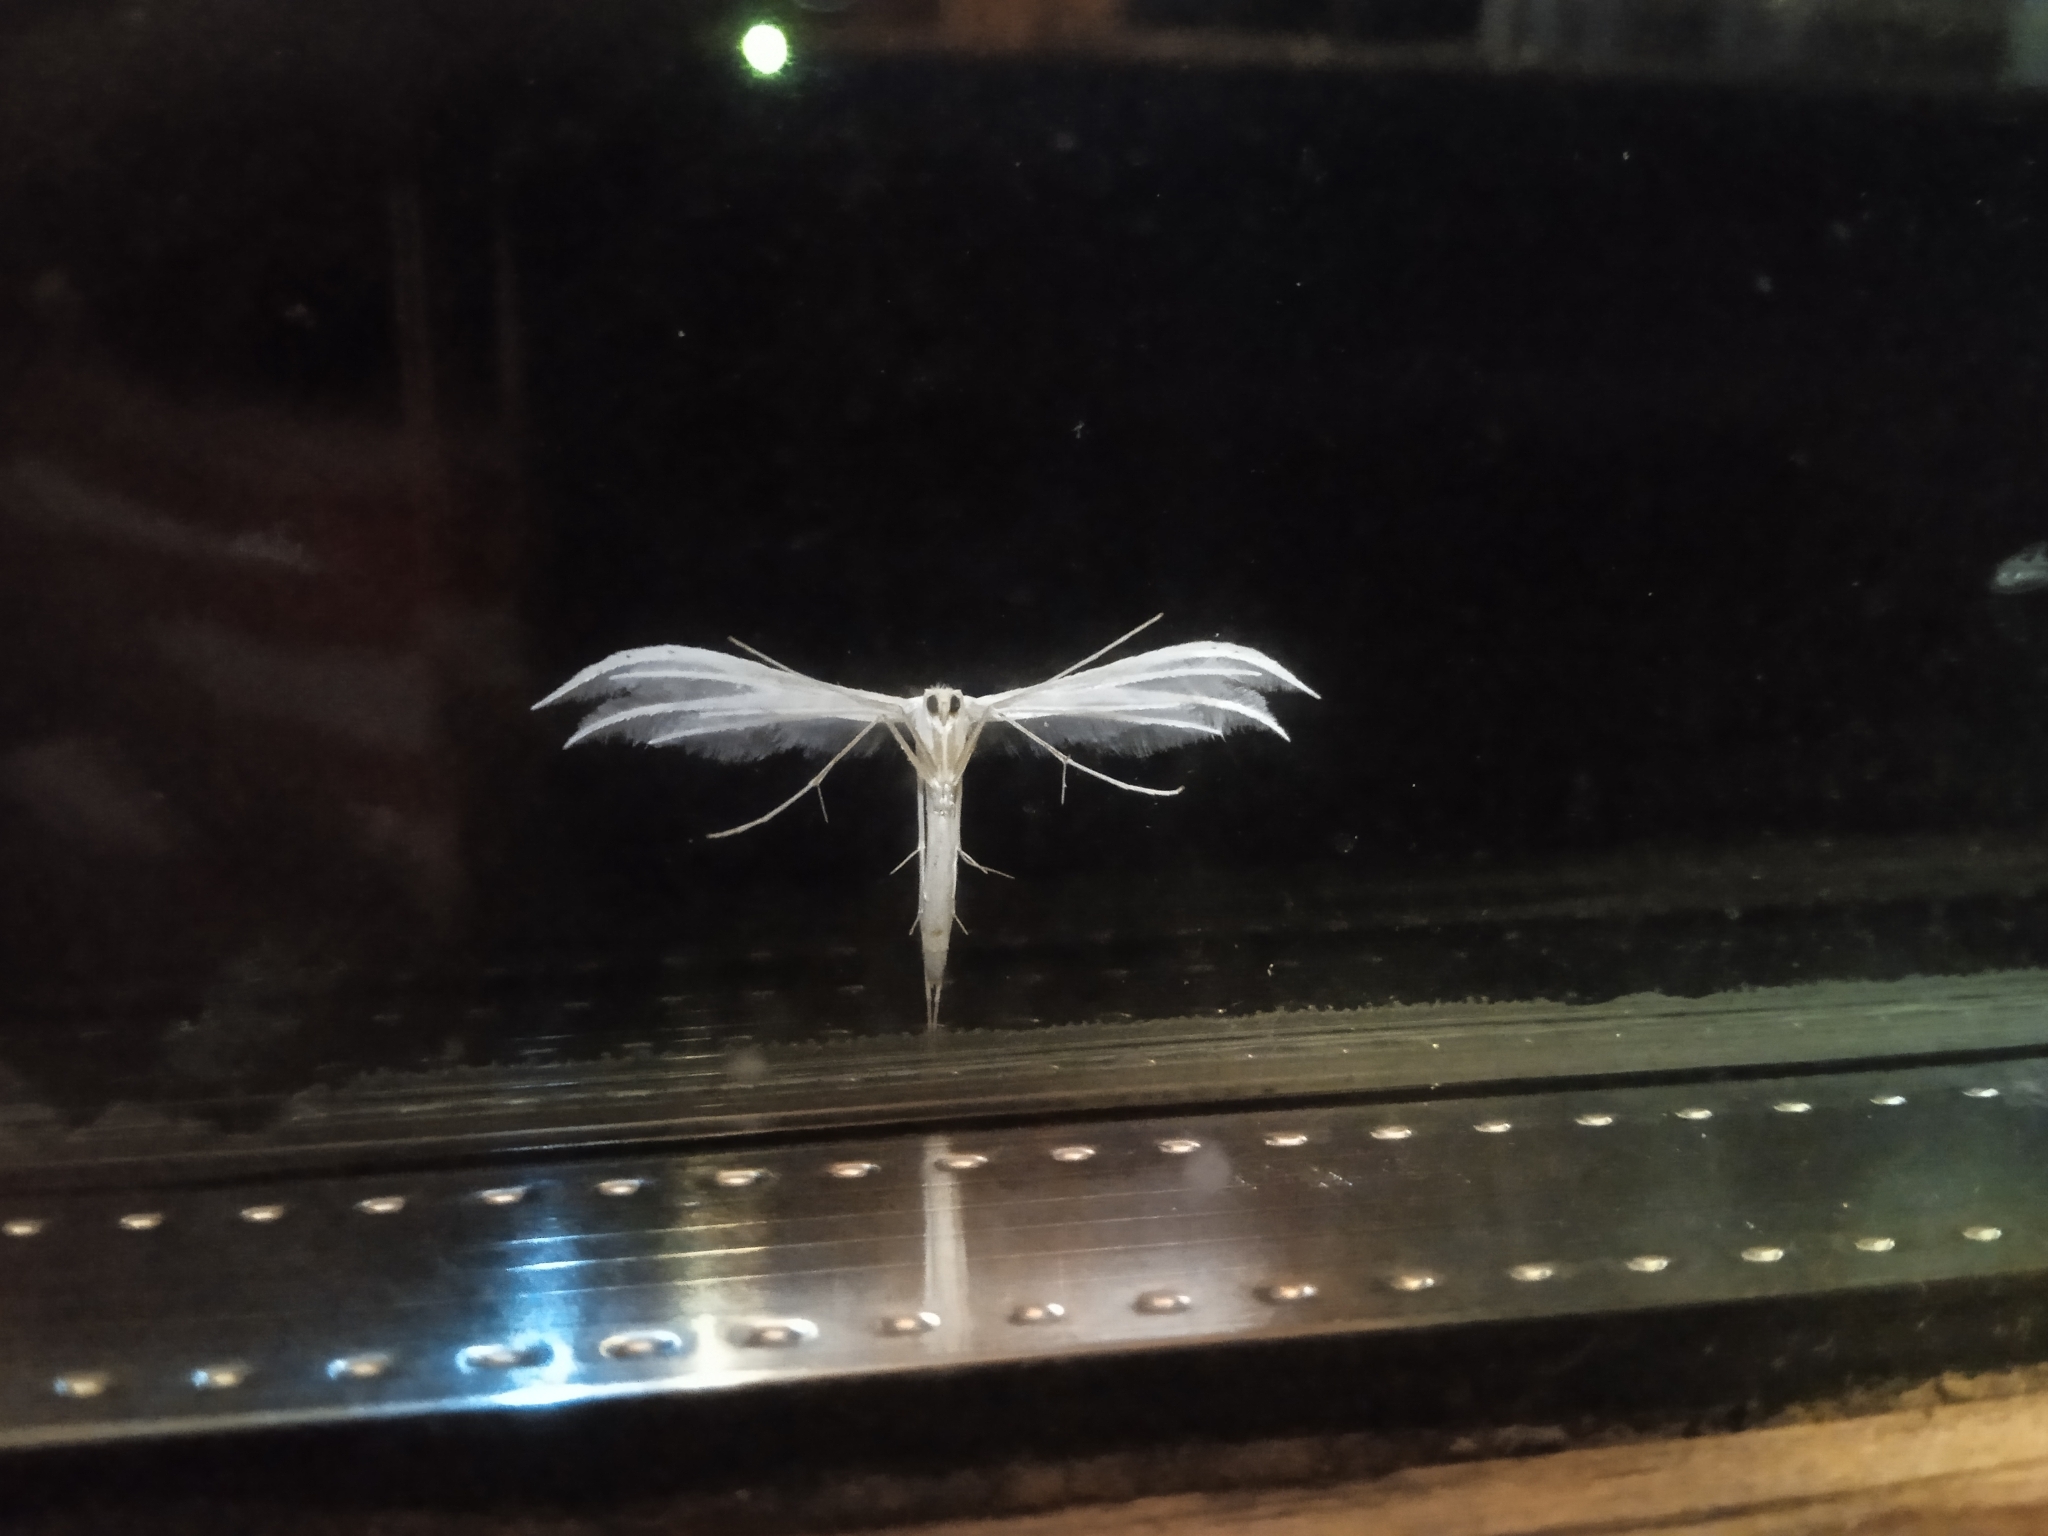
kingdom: Animalia
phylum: Arthropoda
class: Insecta
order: Lepidoptera
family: Pterophoridae
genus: Pterophorus
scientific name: Pterophorus pentadactyla
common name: White plume moth
